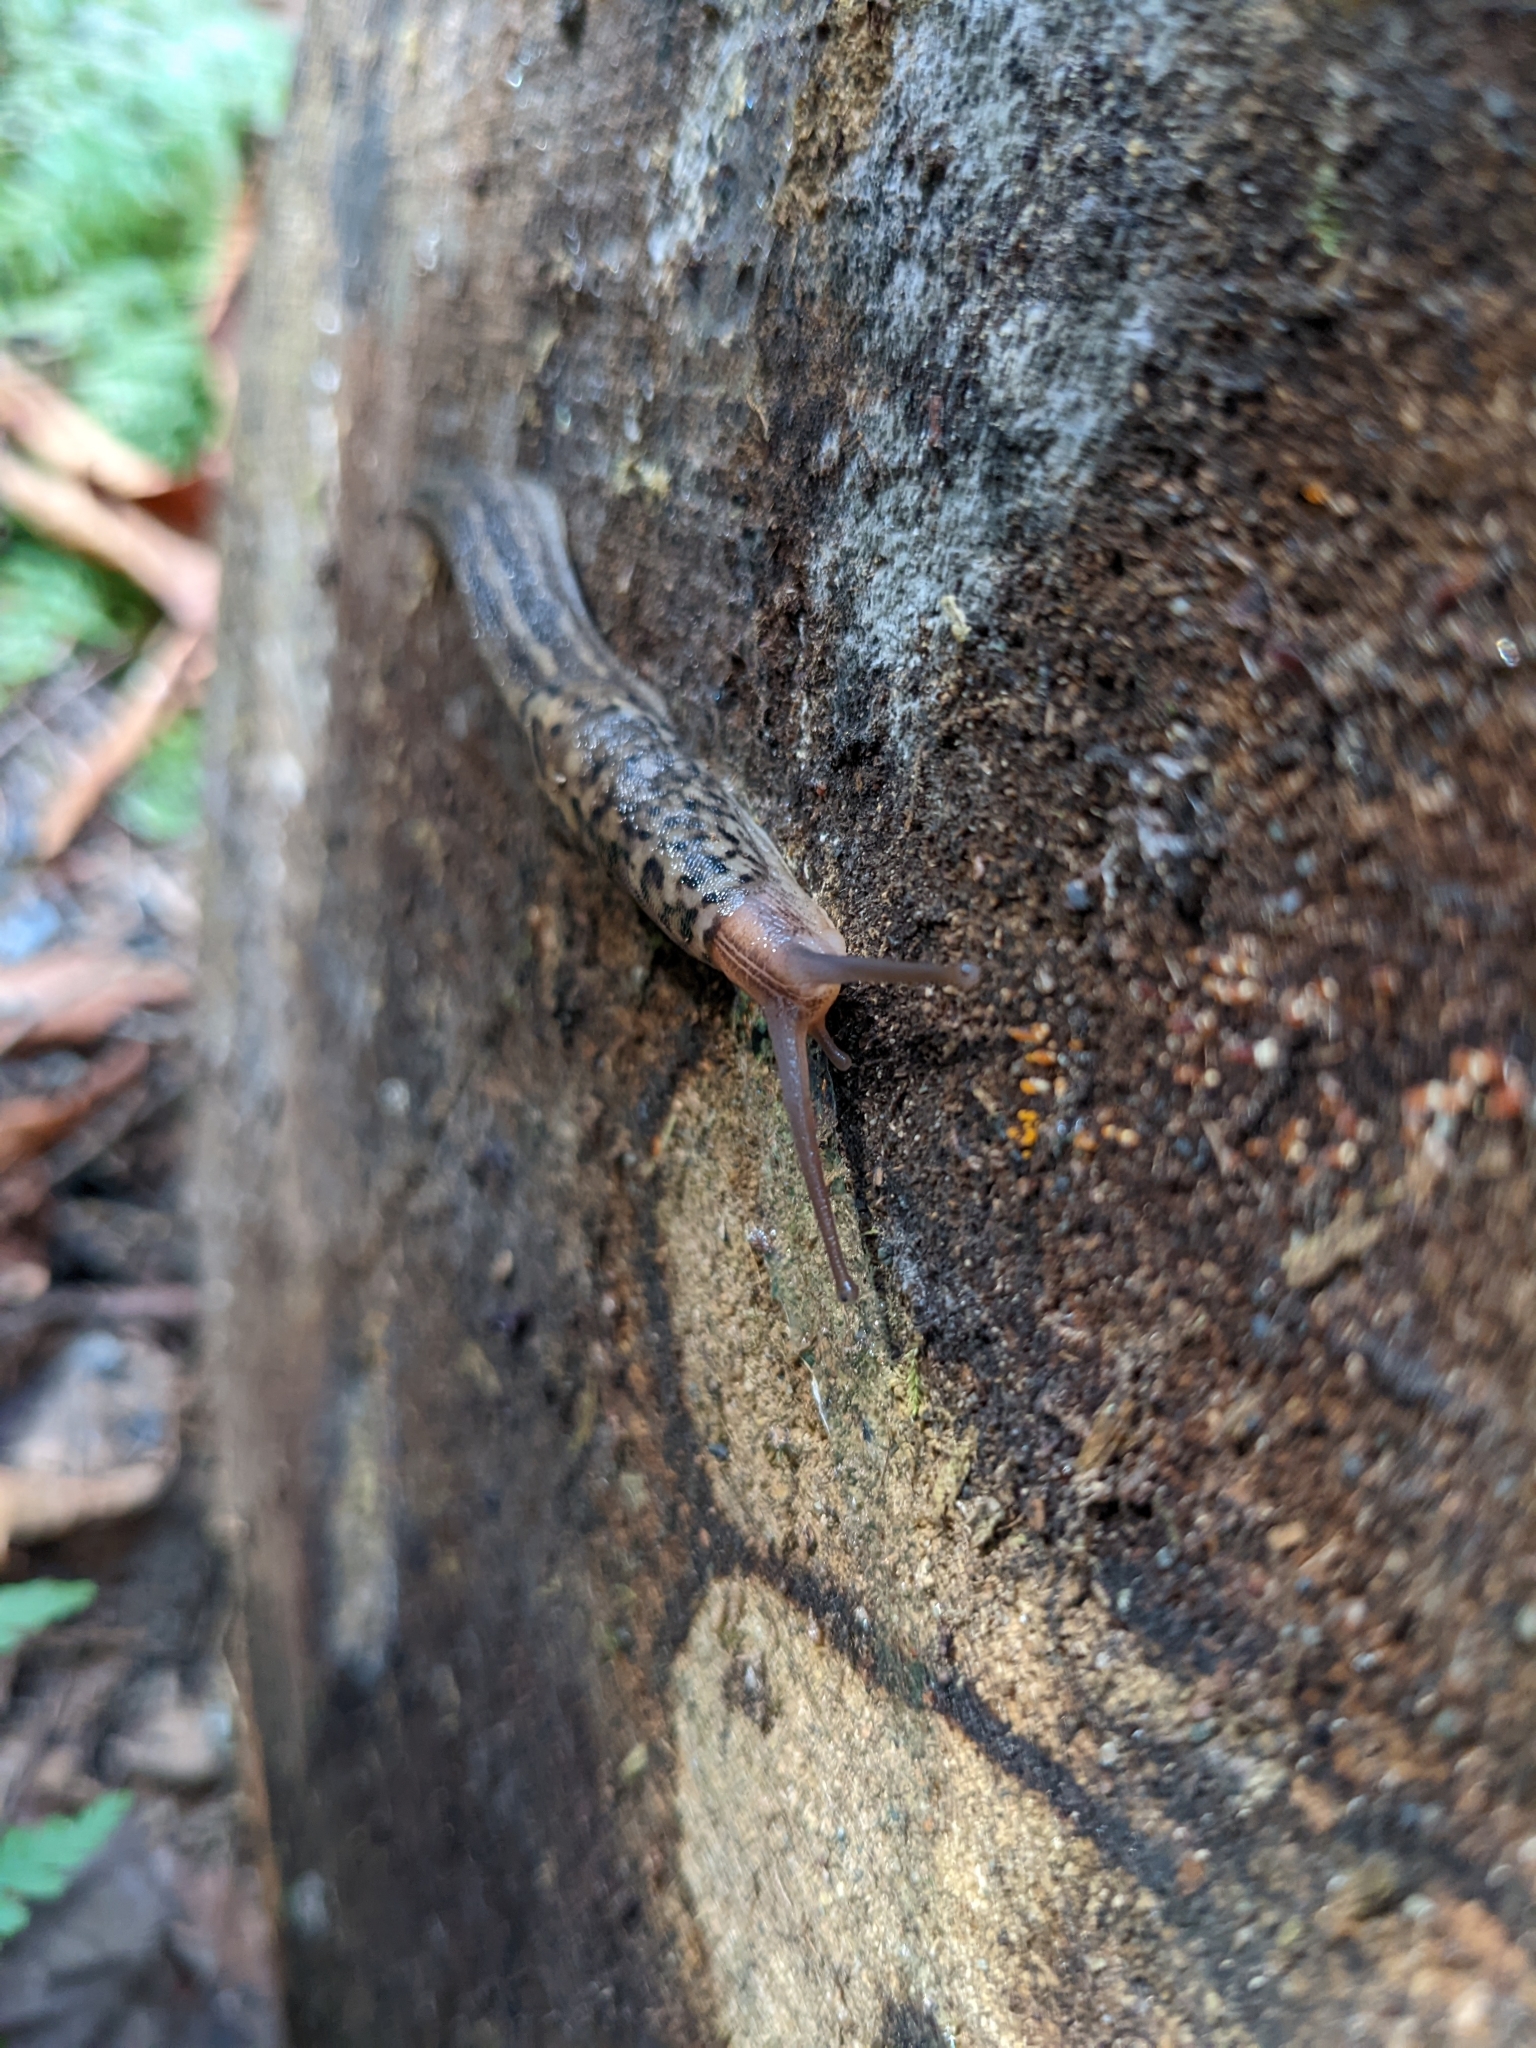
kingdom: Animalia
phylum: Mollusca
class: Gastropoda
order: Stylommatophora
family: Limacidae
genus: Limax
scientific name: Limax maximus
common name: Great grey slug
